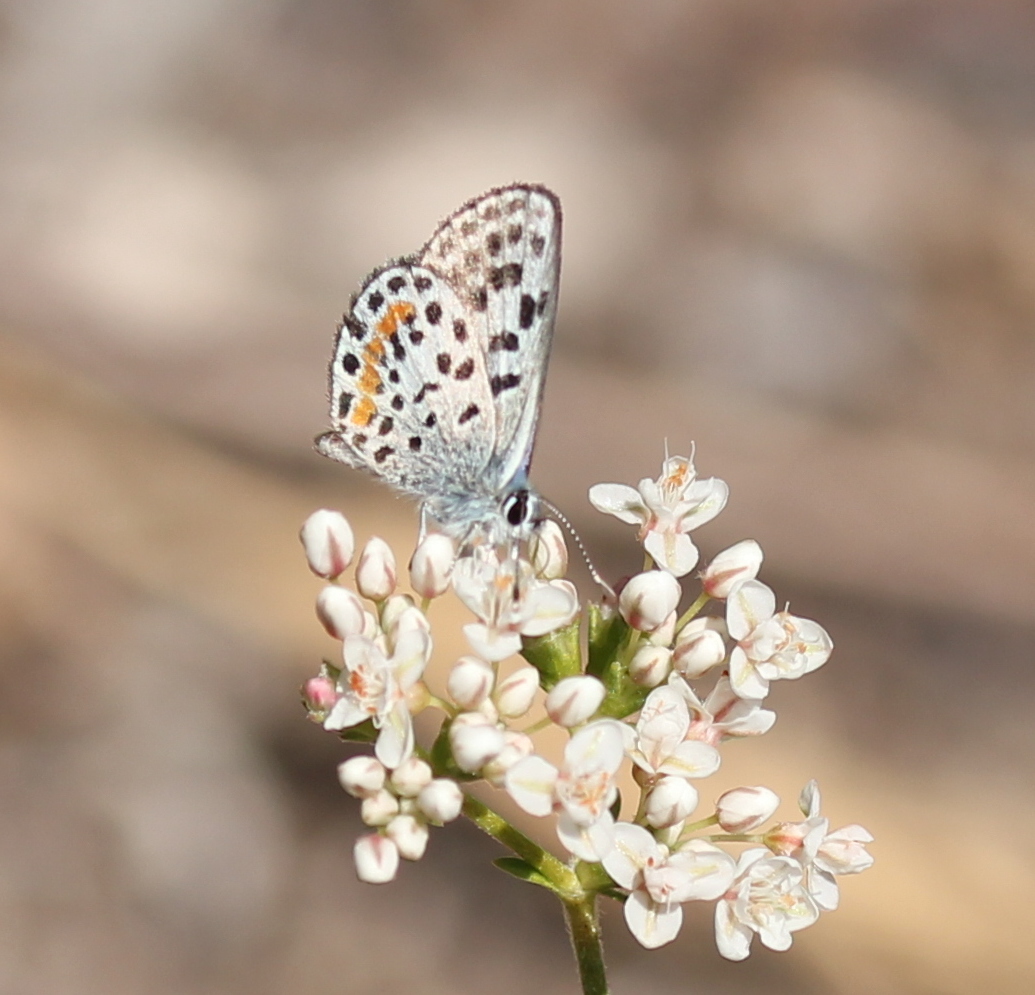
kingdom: Animalia
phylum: Arthropoda
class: Insecta
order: Lepidoptera
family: Lycaenidae
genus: Philotes
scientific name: Philotes bernardino
